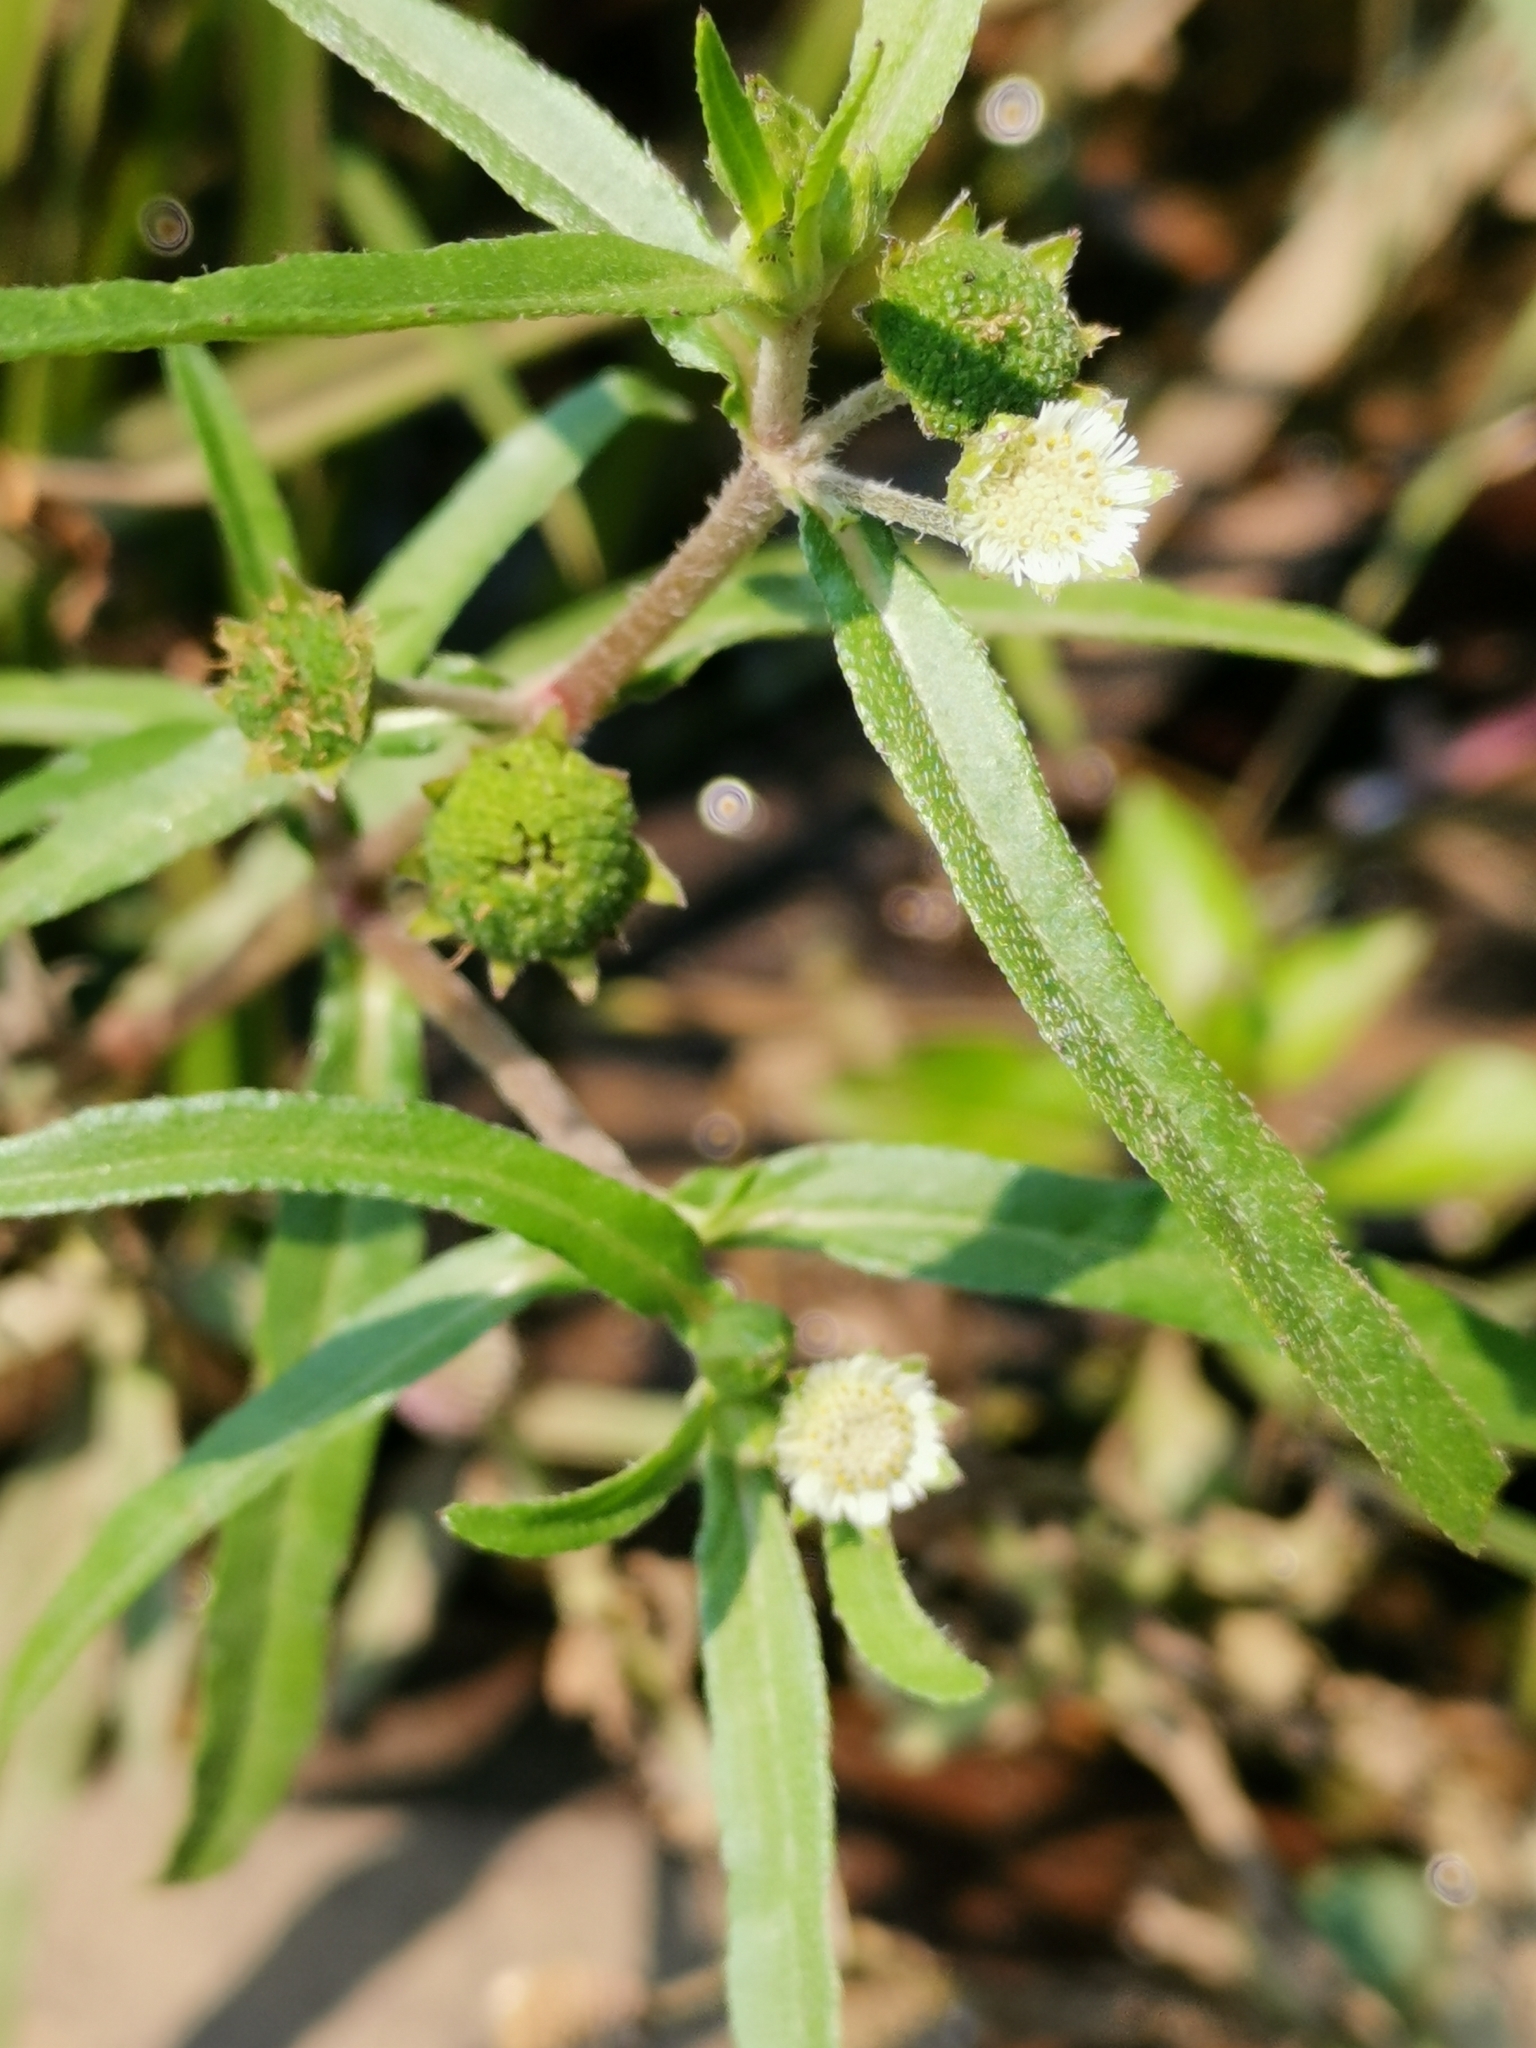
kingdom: Plantae
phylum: Tracheophyta
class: Magnoliopsida
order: Asterales
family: Asteraceae
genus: Eclipta
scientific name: Eclipta prostrata
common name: False daisy
